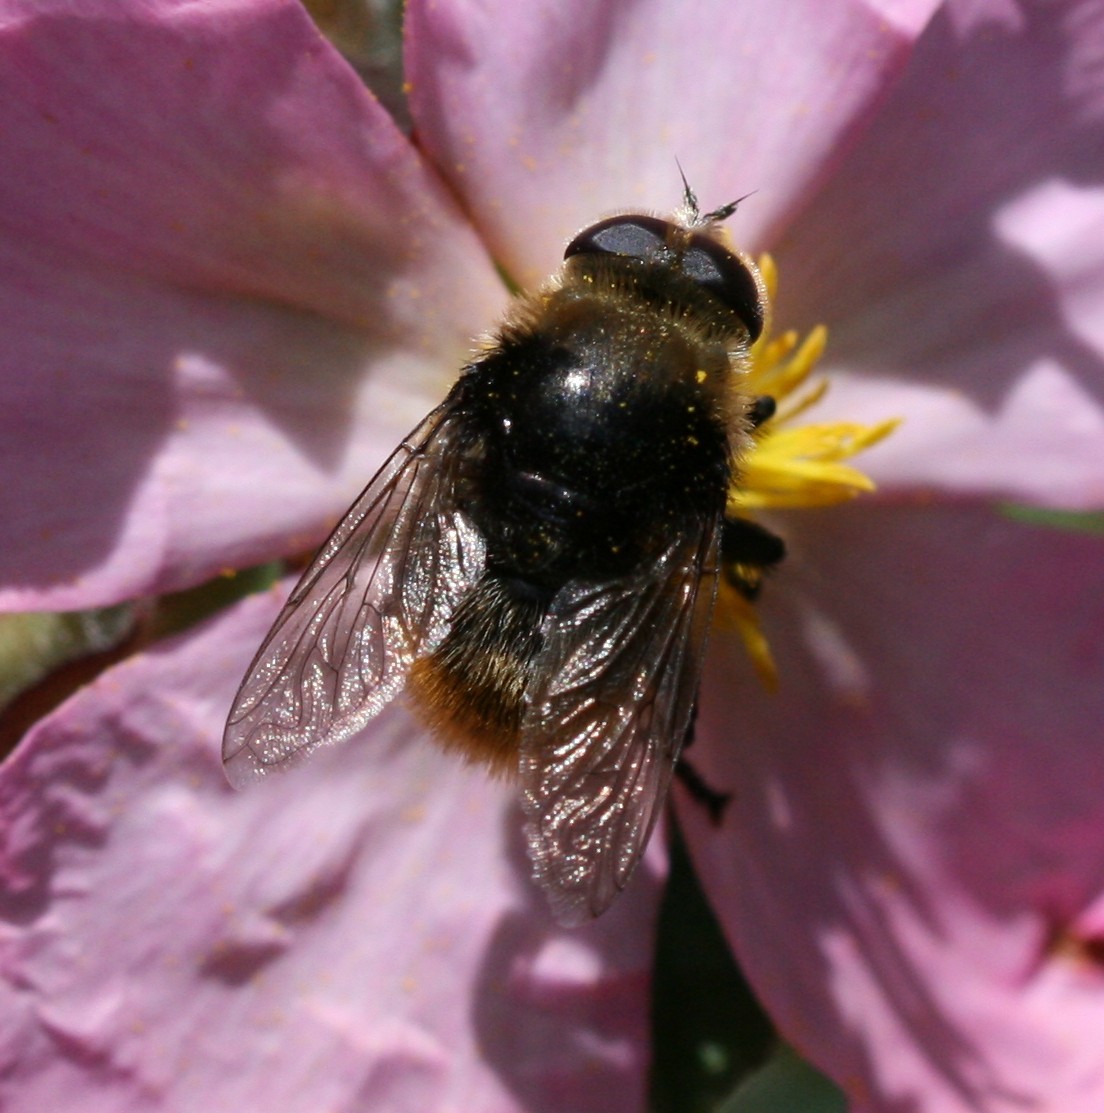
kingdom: Animalia
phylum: Arthropoda
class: Insecta
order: Diptera
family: Syrphidae
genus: Merodon
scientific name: Merodon equestris
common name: Greater bulb-fly
